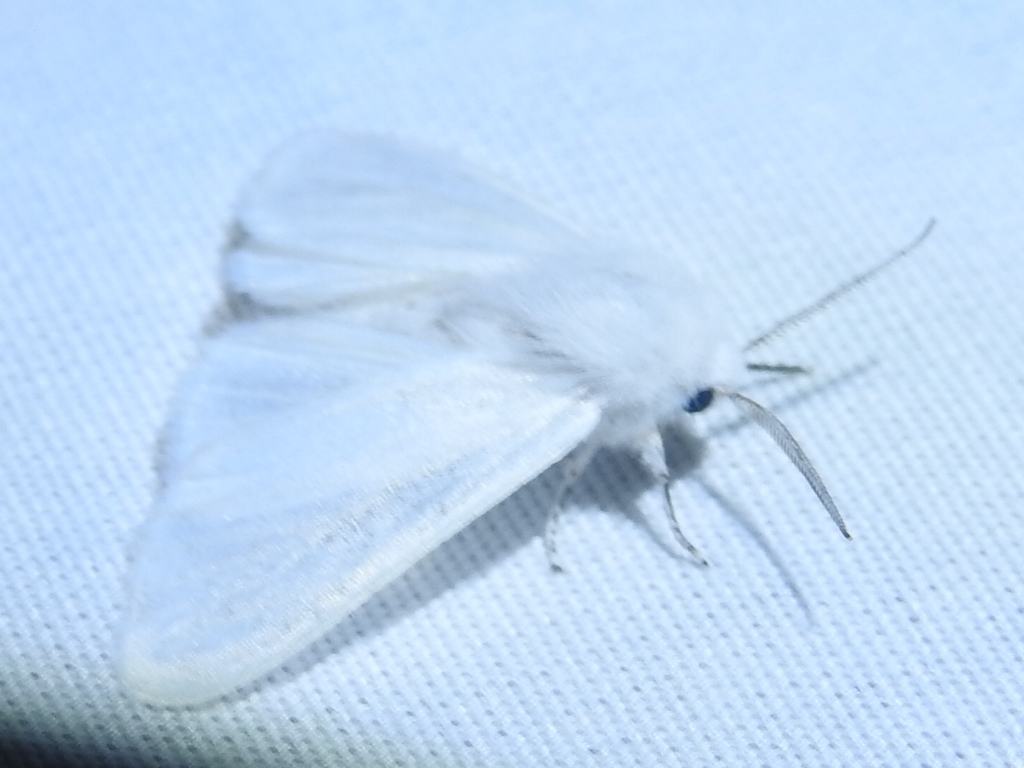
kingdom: Animalia
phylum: Arthropoda
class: Insecta
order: Lepidoptera
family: Erebidae
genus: Hyphantria
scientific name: Hyphantria cunea
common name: American white moth
